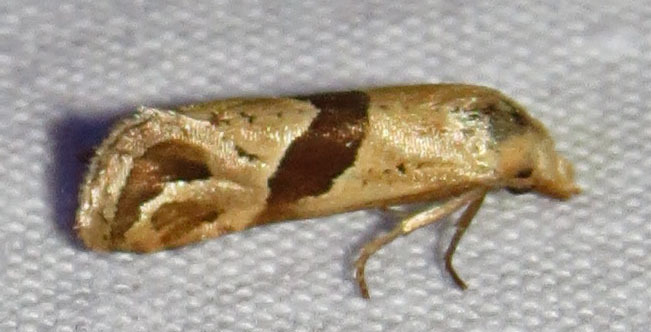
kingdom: Animalia
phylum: Arthropoda
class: Insecta
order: Lepidoptera
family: Tortricidae
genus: Eugnosta
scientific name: Eugnosta sartana
